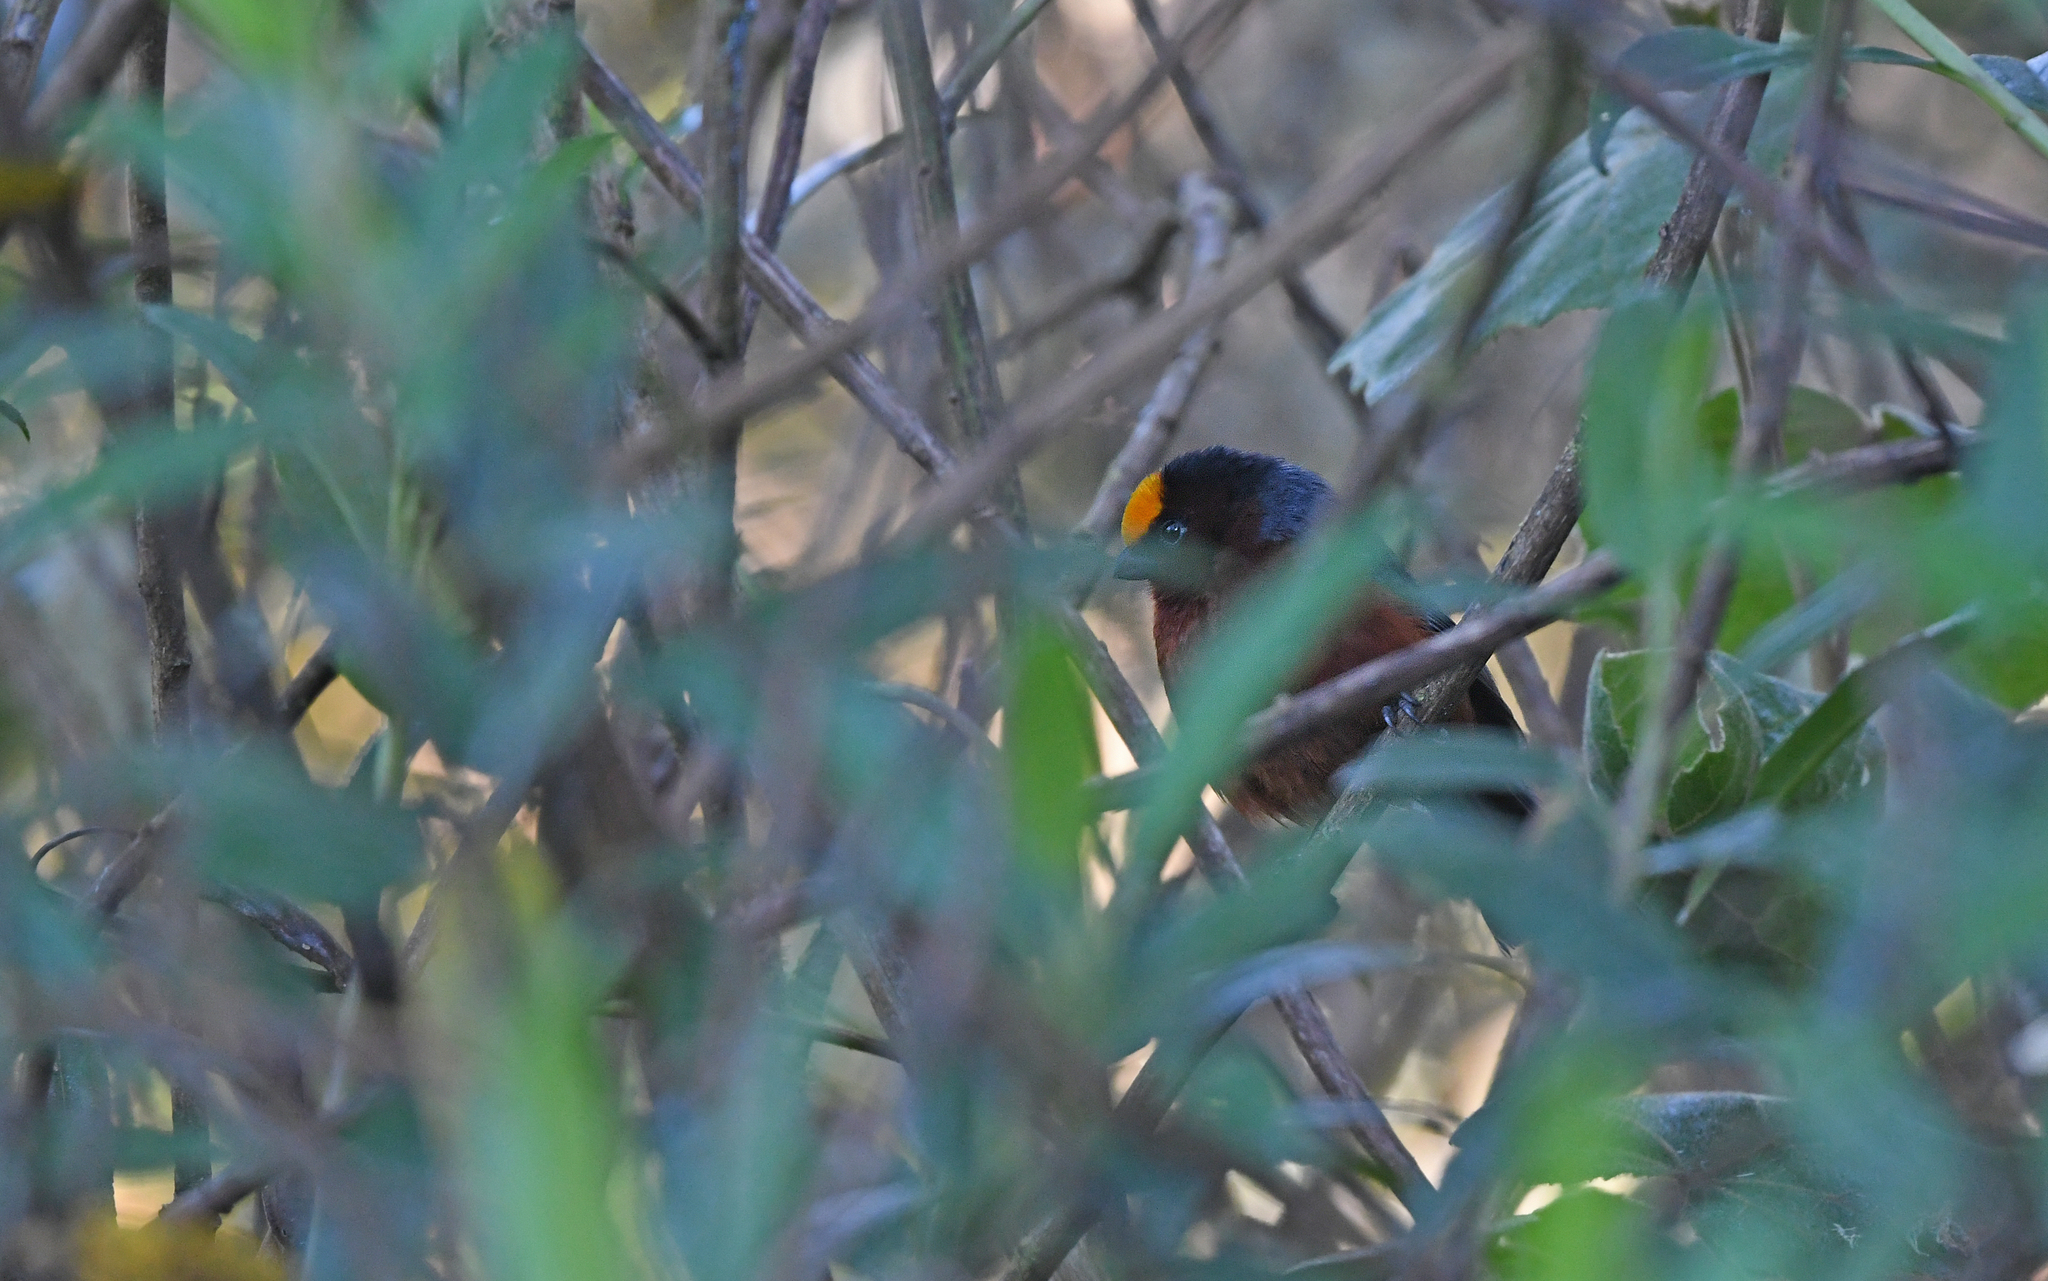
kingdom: Animalia
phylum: Chordata
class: Aves
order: Passeriformes
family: Thraupidae
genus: Catamblyrhynchus
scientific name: Catamblyrhynchus diadema
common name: Plushcap
